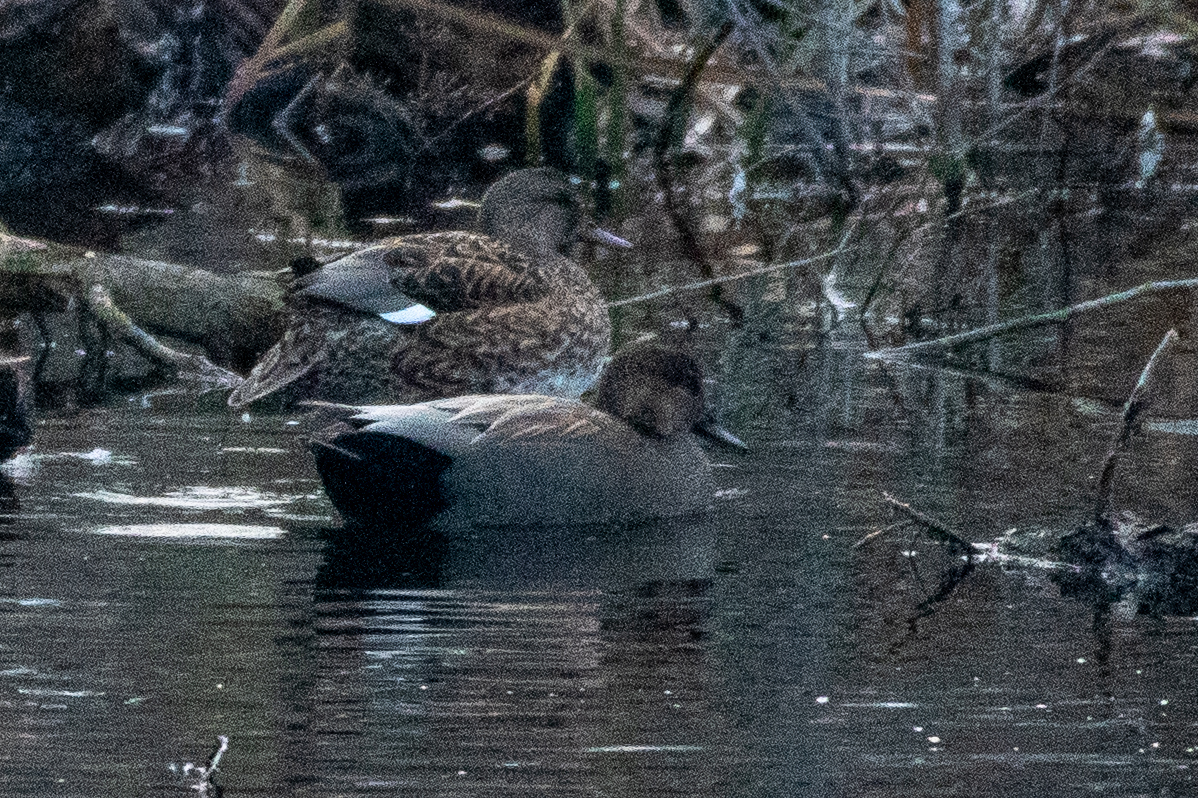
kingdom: Animalia
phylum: Chordata
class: Aves
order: Anseriformes
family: Anatidae
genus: Mareca
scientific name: Mareca strepera
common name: Gadwall
